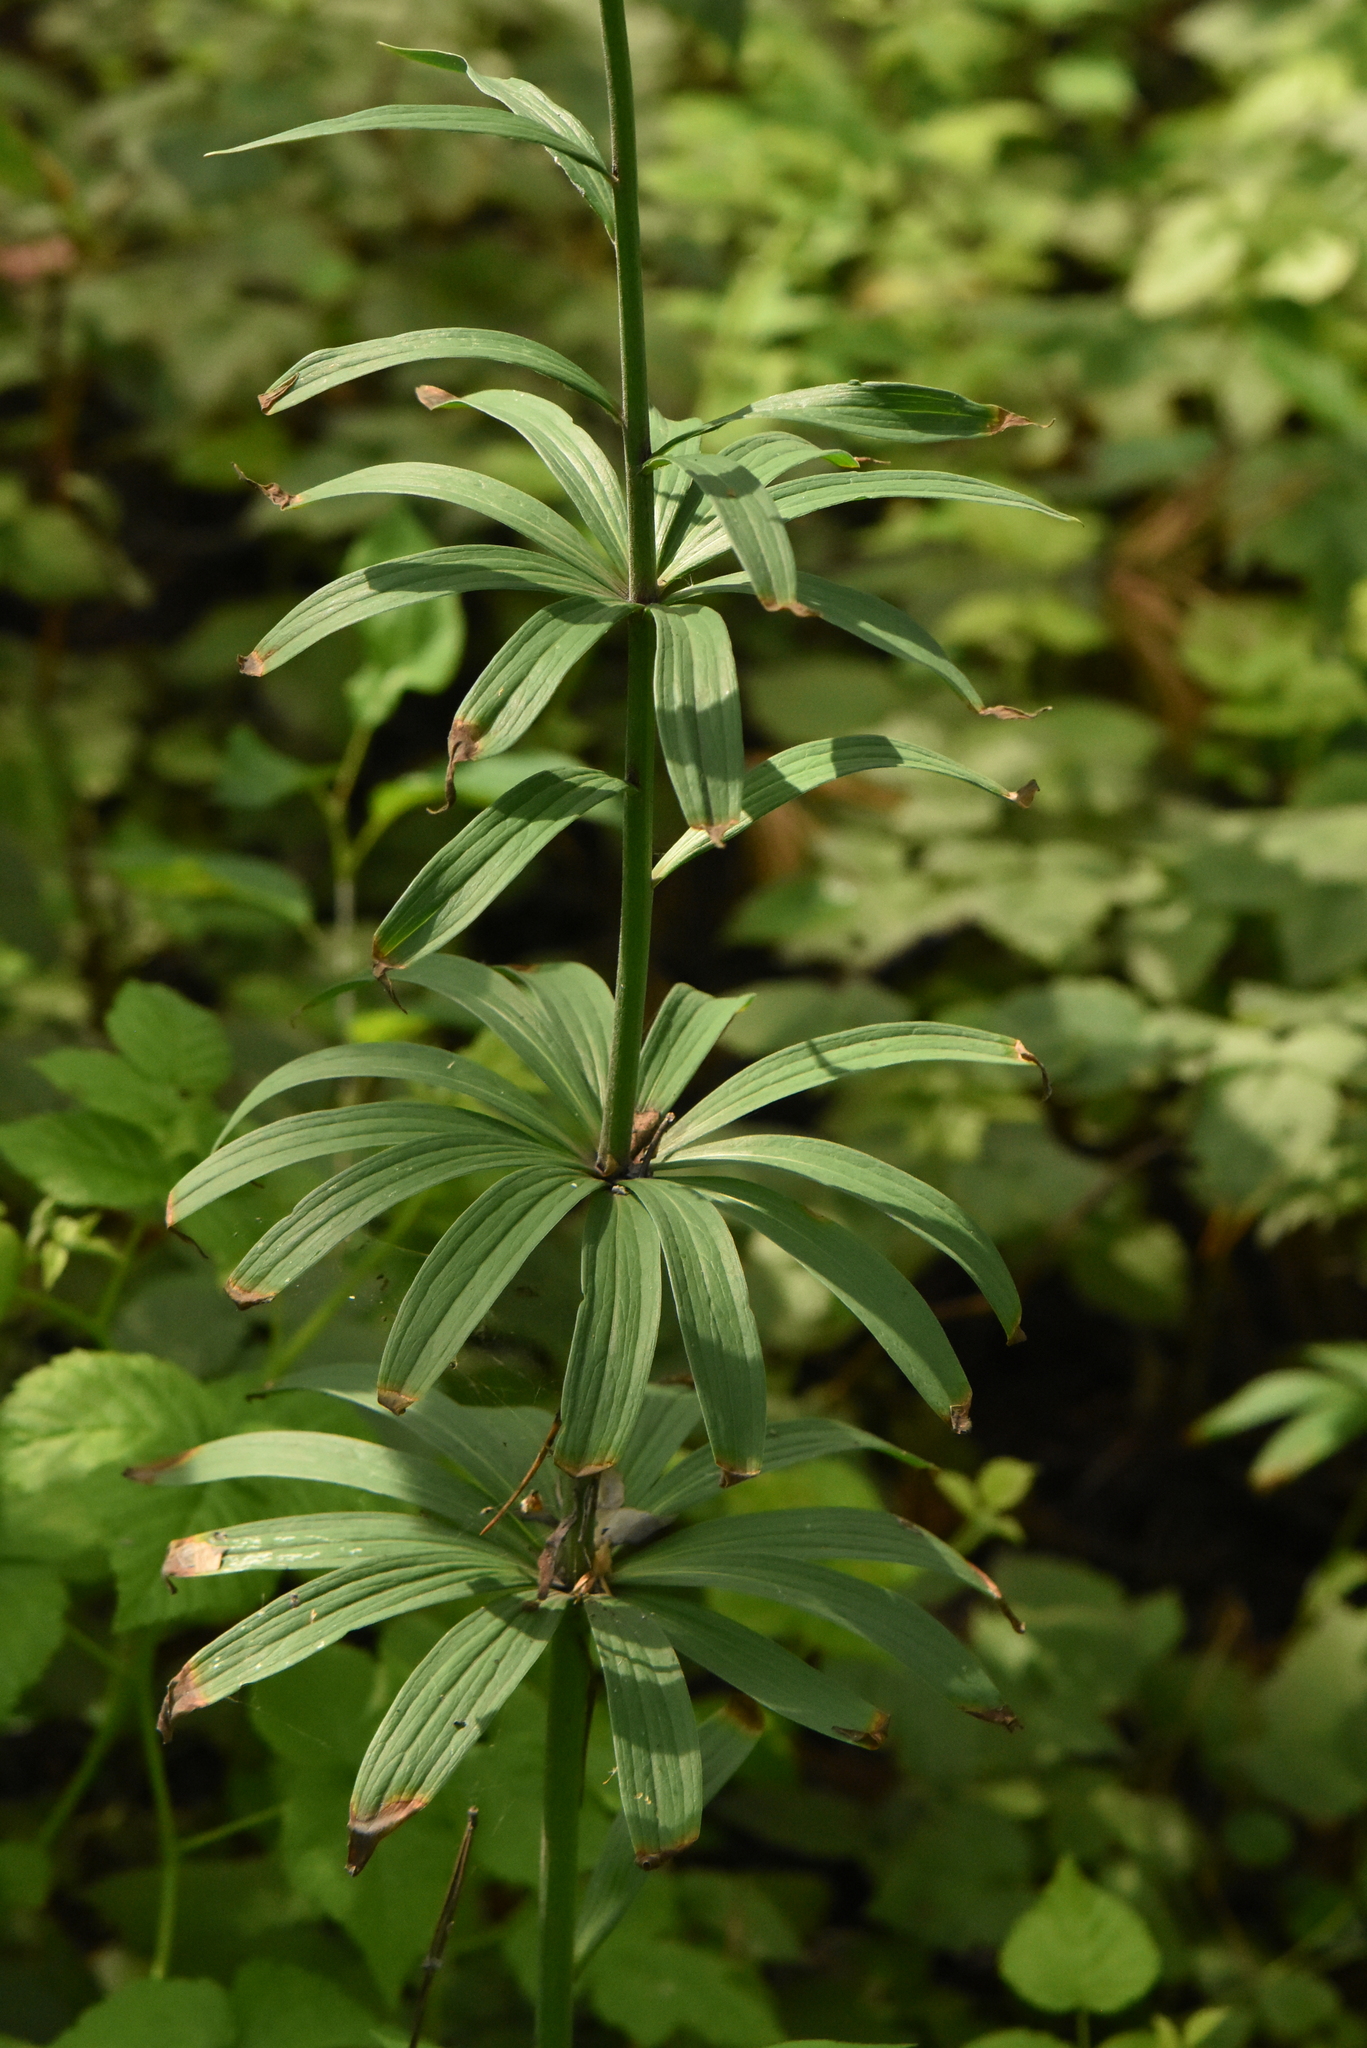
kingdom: Plantae
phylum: Tracheophyta
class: Liliopsida
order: Liliales
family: Liliaceae
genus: Lilium
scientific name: Lilium martagon
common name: Martagon lily
